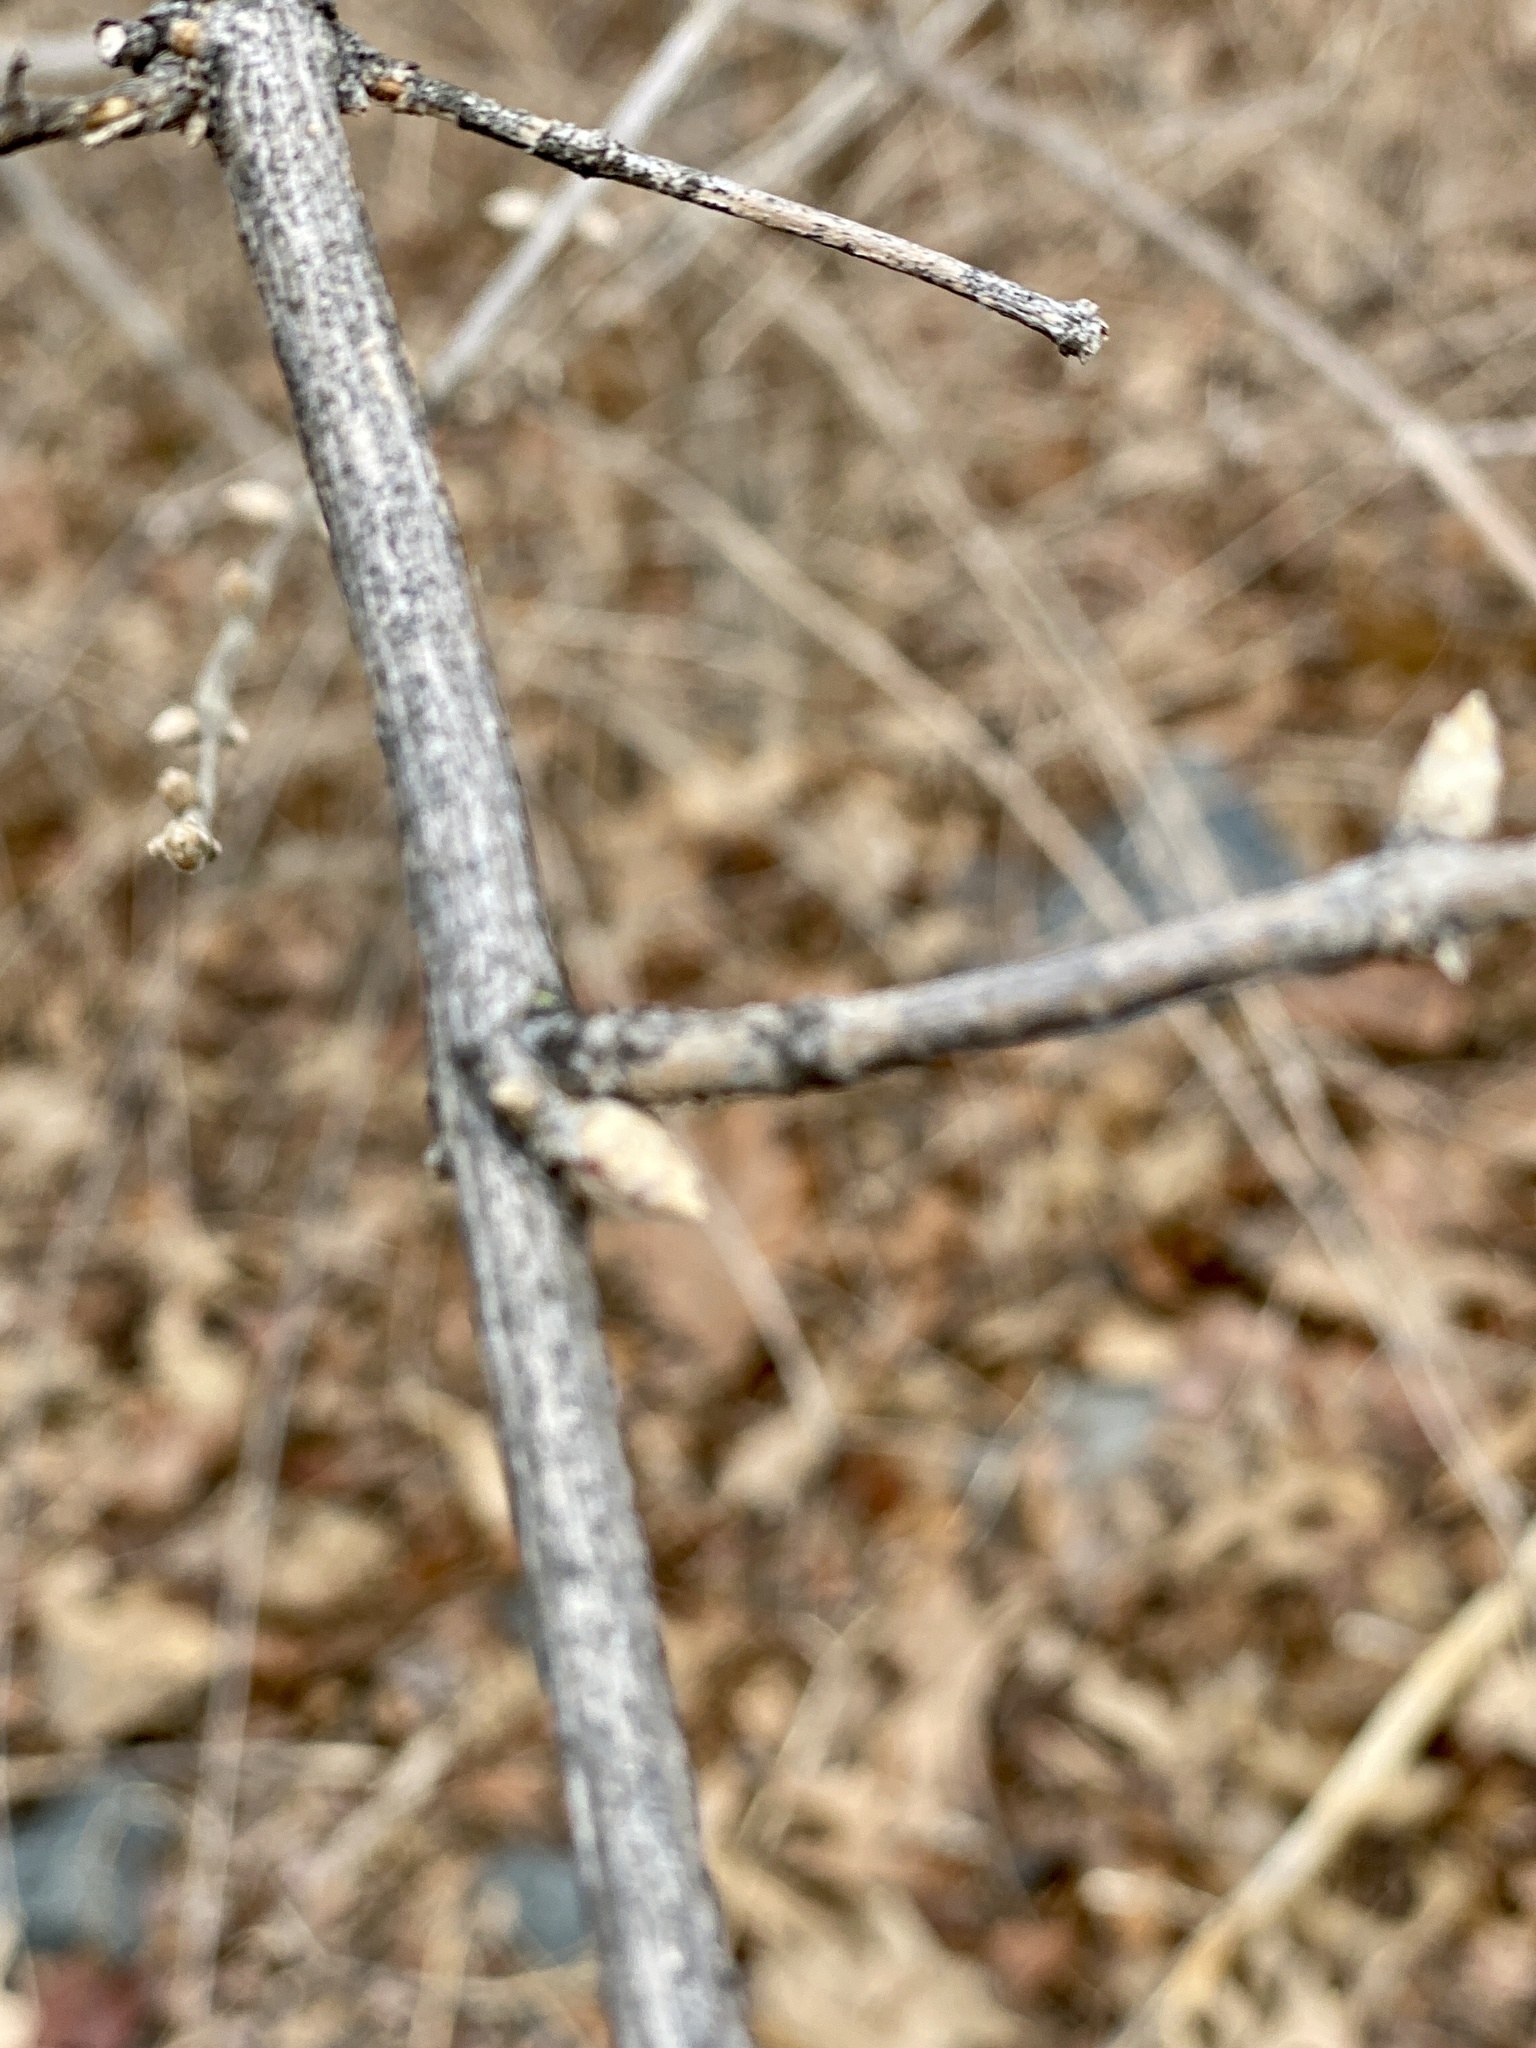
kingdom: Plantae
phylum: Tracheophyta
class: Magnoliopsida
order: Dipsacales
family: Caprifoliaceae
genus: Lonicera
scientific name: Lonicera maackii
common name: Amur honeysuckle
